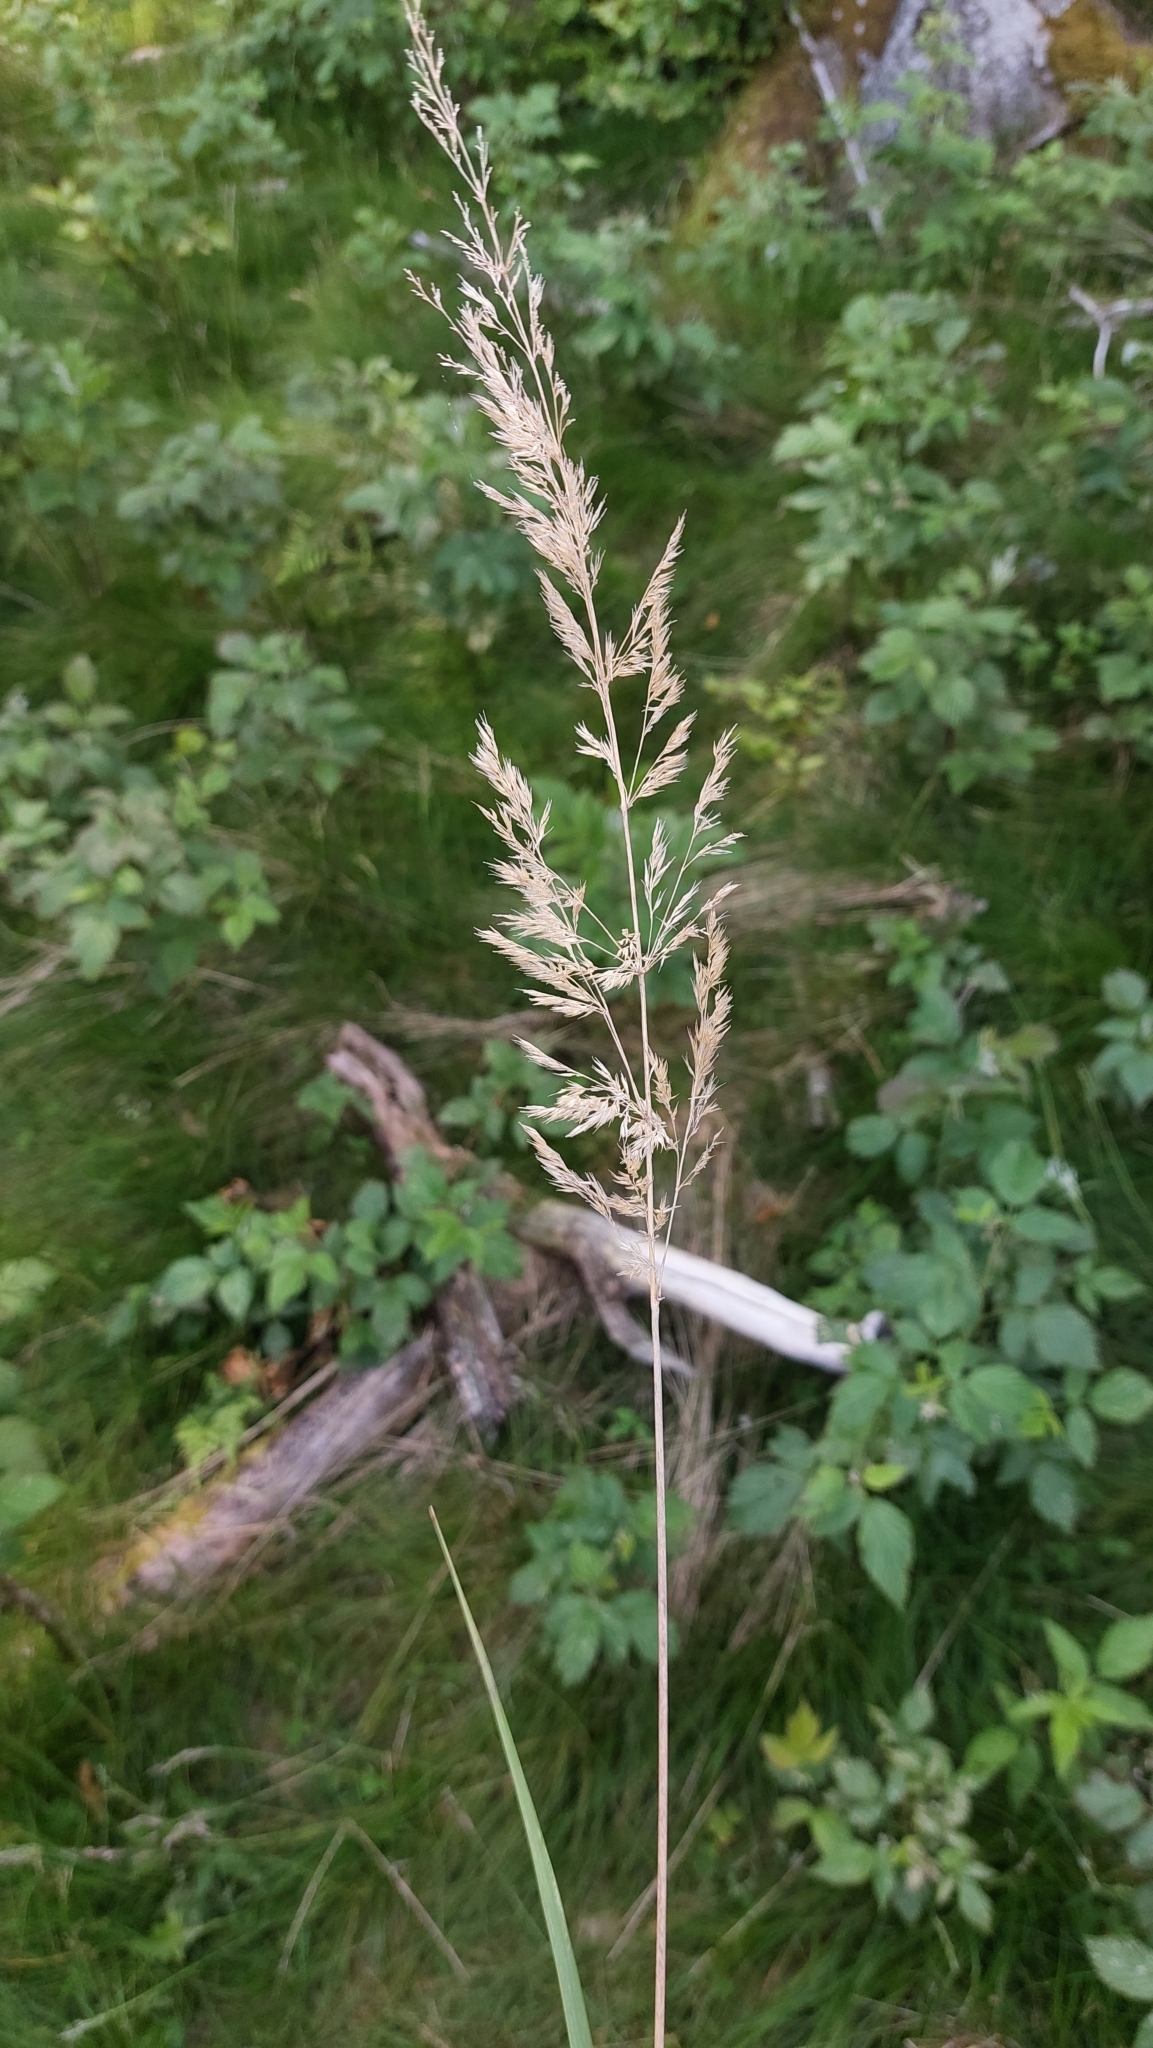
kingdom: Plantae
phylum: Tracheophyta
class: Liliopsida
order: Poales
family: Poaceae
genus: Calamagrostis
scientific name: Calamagrostis epigejos
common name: Wood small-reed
